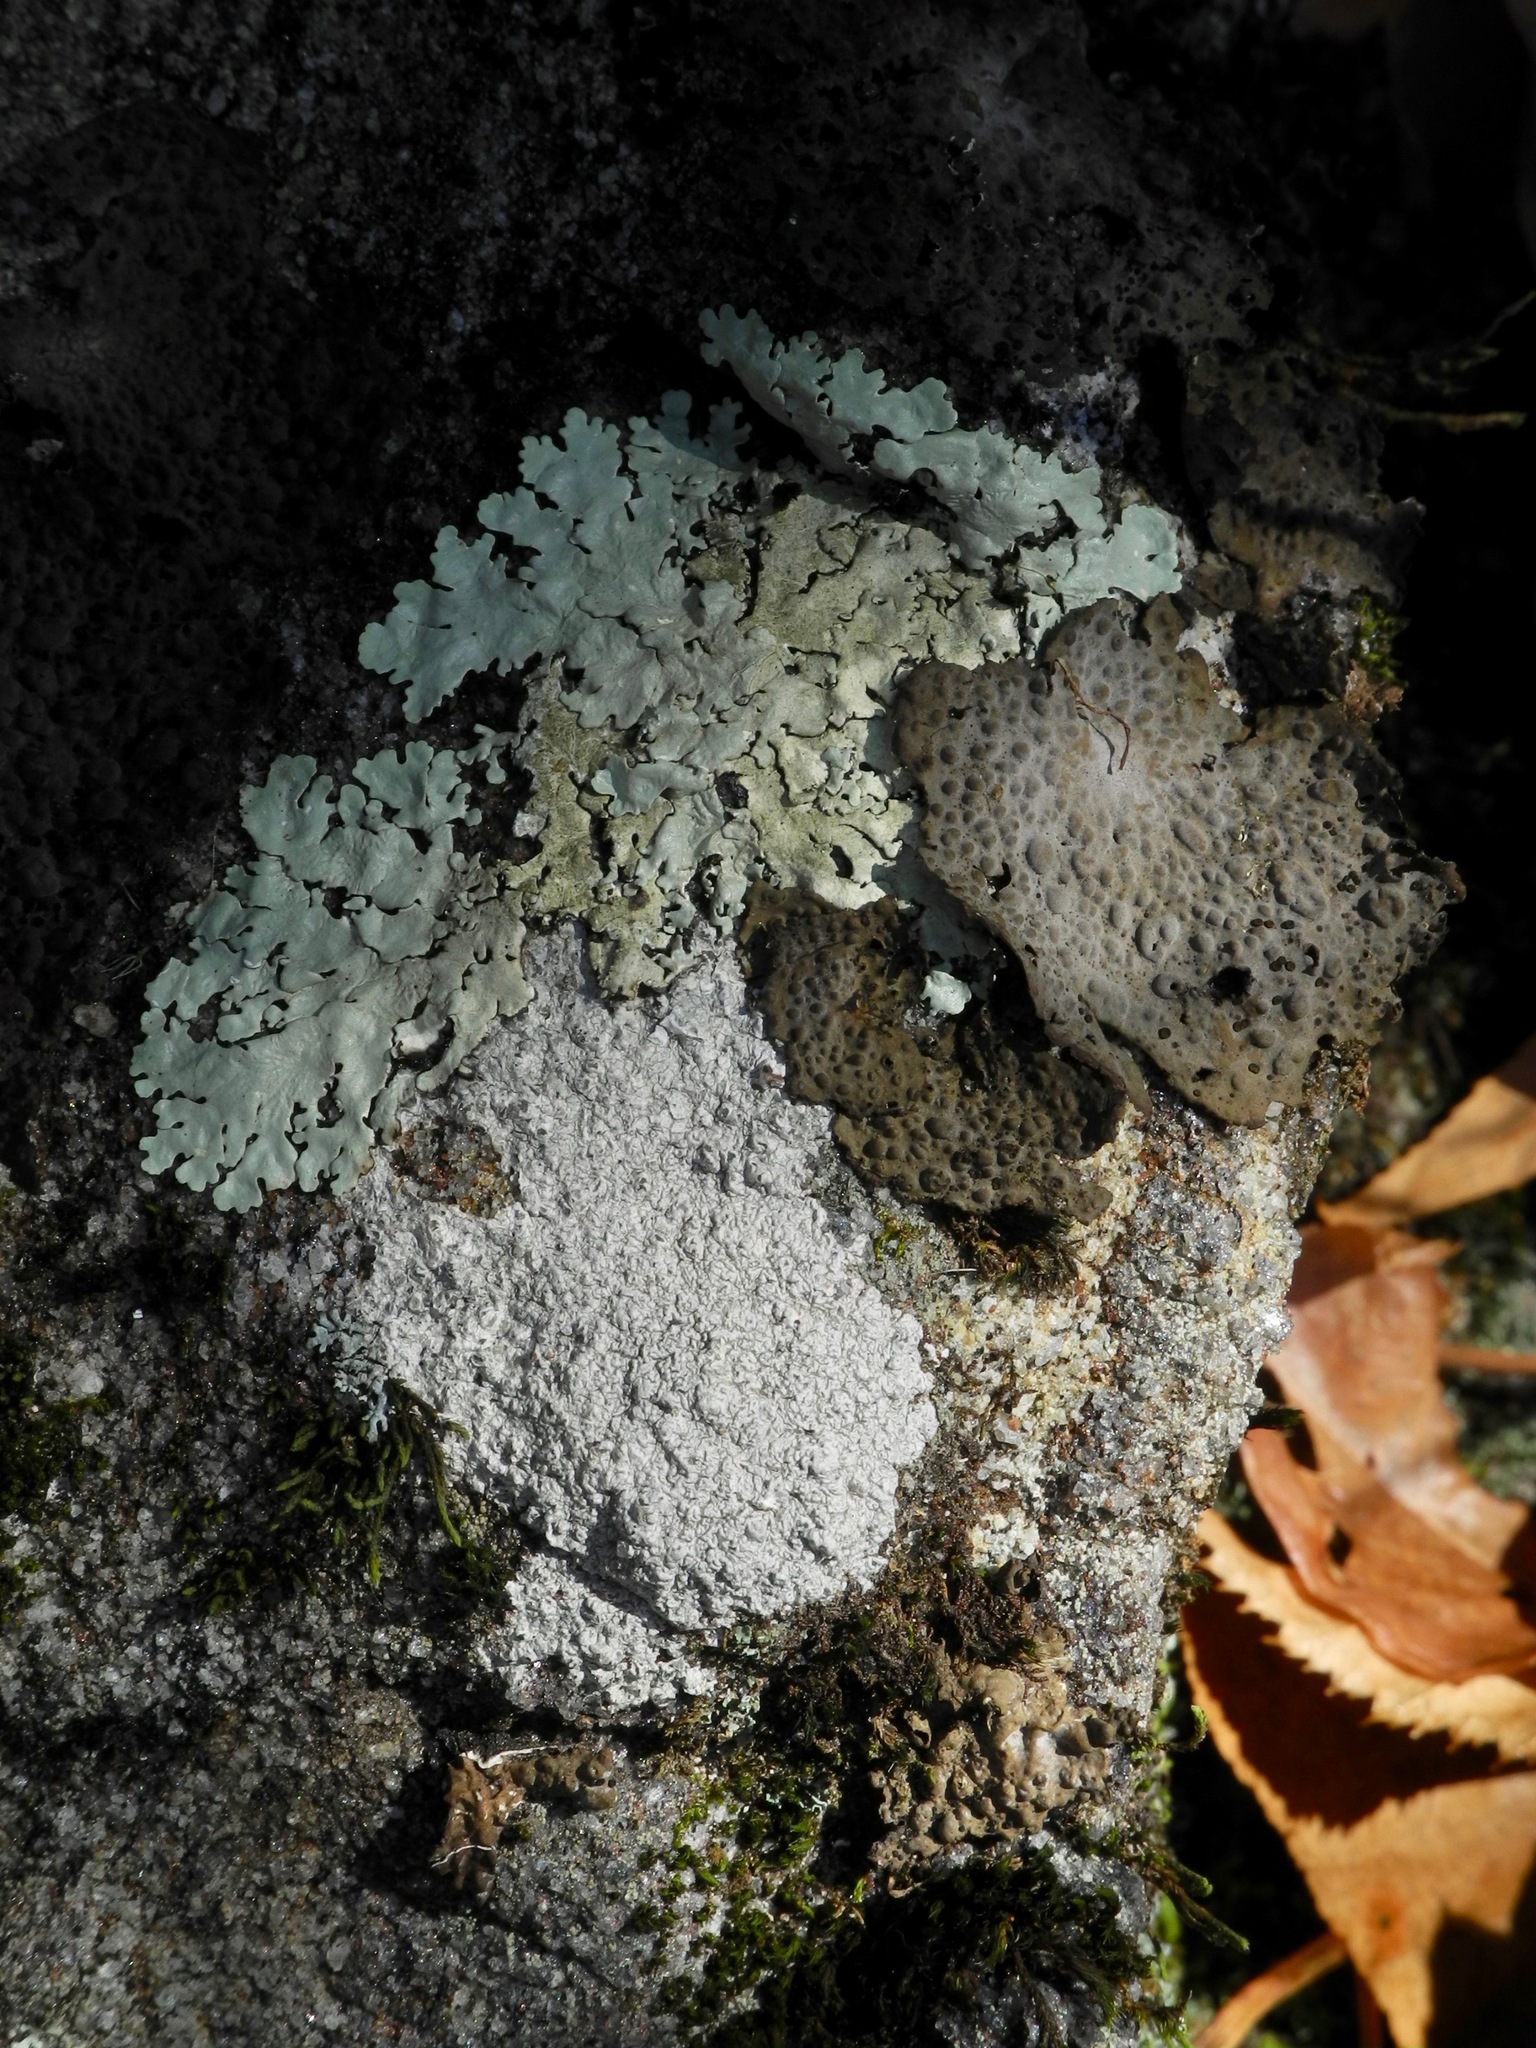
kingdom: Fungi
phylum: Ascomycota
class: Lecanoromycetes
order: Umbilicariales
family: Umbilicariaceae
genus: Lasallia
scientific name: Lasallia papulosa
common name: Common toadskin lichen
